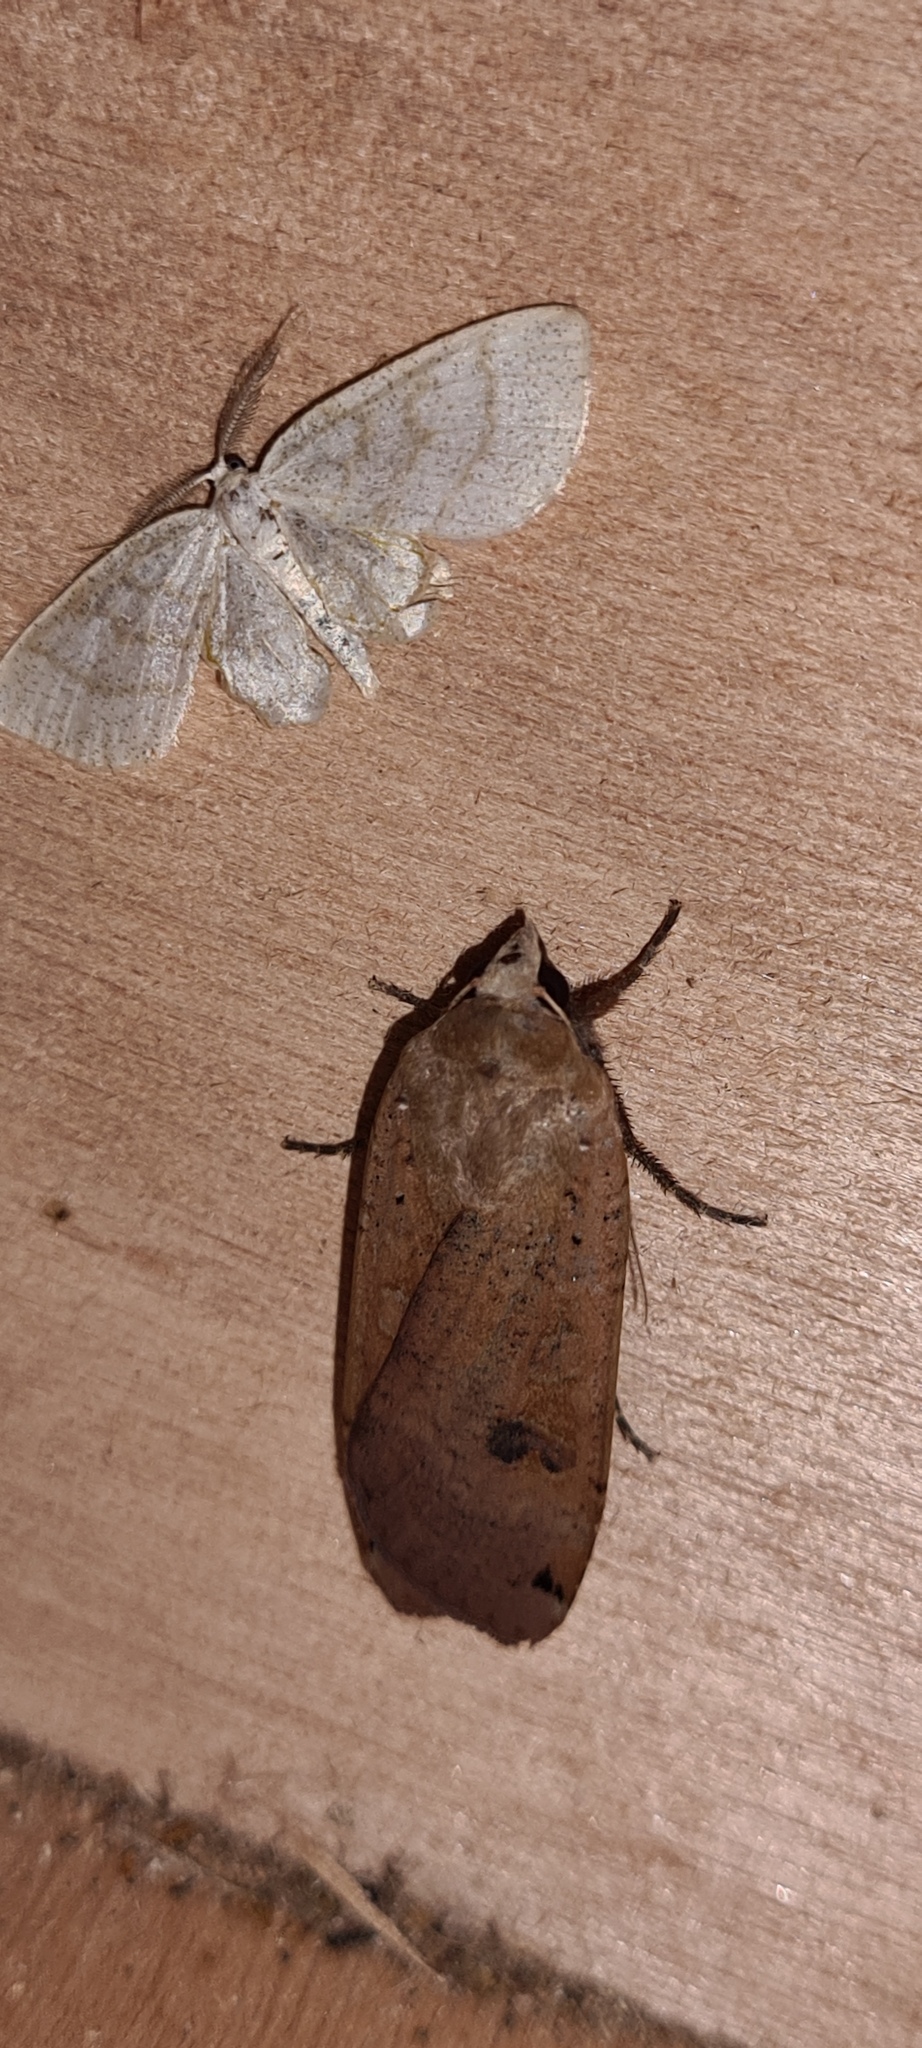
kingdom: Animalia
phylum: Arthropoda
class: Insecta
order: Lepidoptera
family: Noctuidae
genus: Noctua
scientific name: Noctua pronuba
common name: Large yellow underwing
